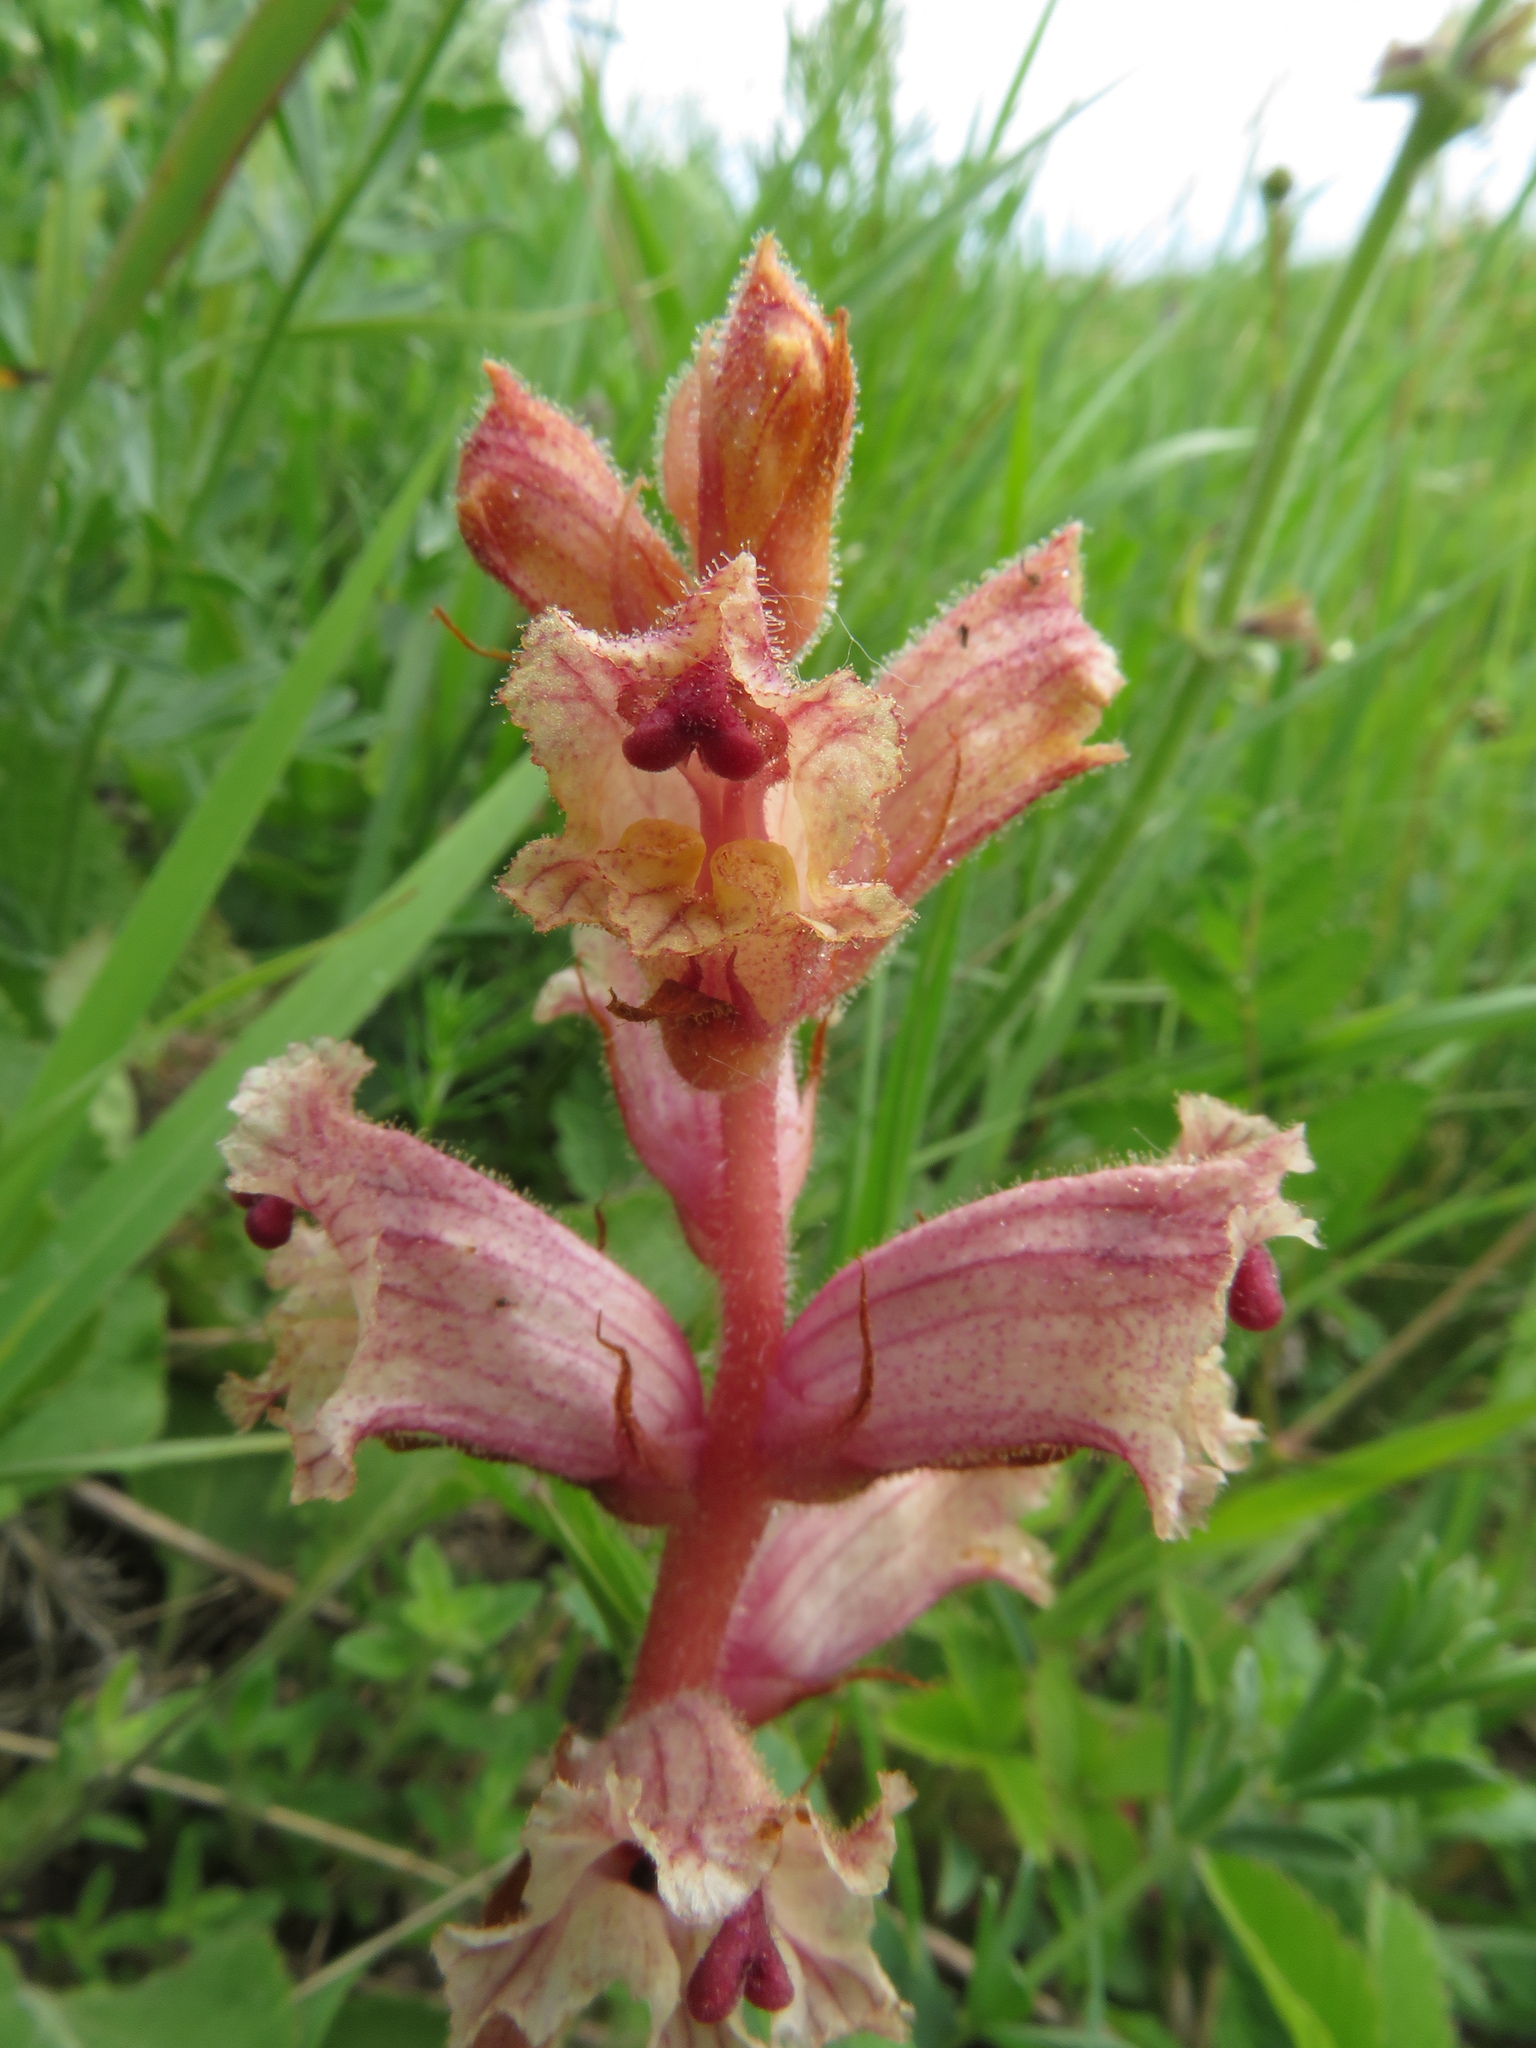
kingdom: Plantae
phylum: Tracheophyta
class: Magnoliopsida
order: Lamiales
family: Orobanchaceae
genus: Orobanche
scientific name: Orobanche alba
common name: Thyme broomrape
